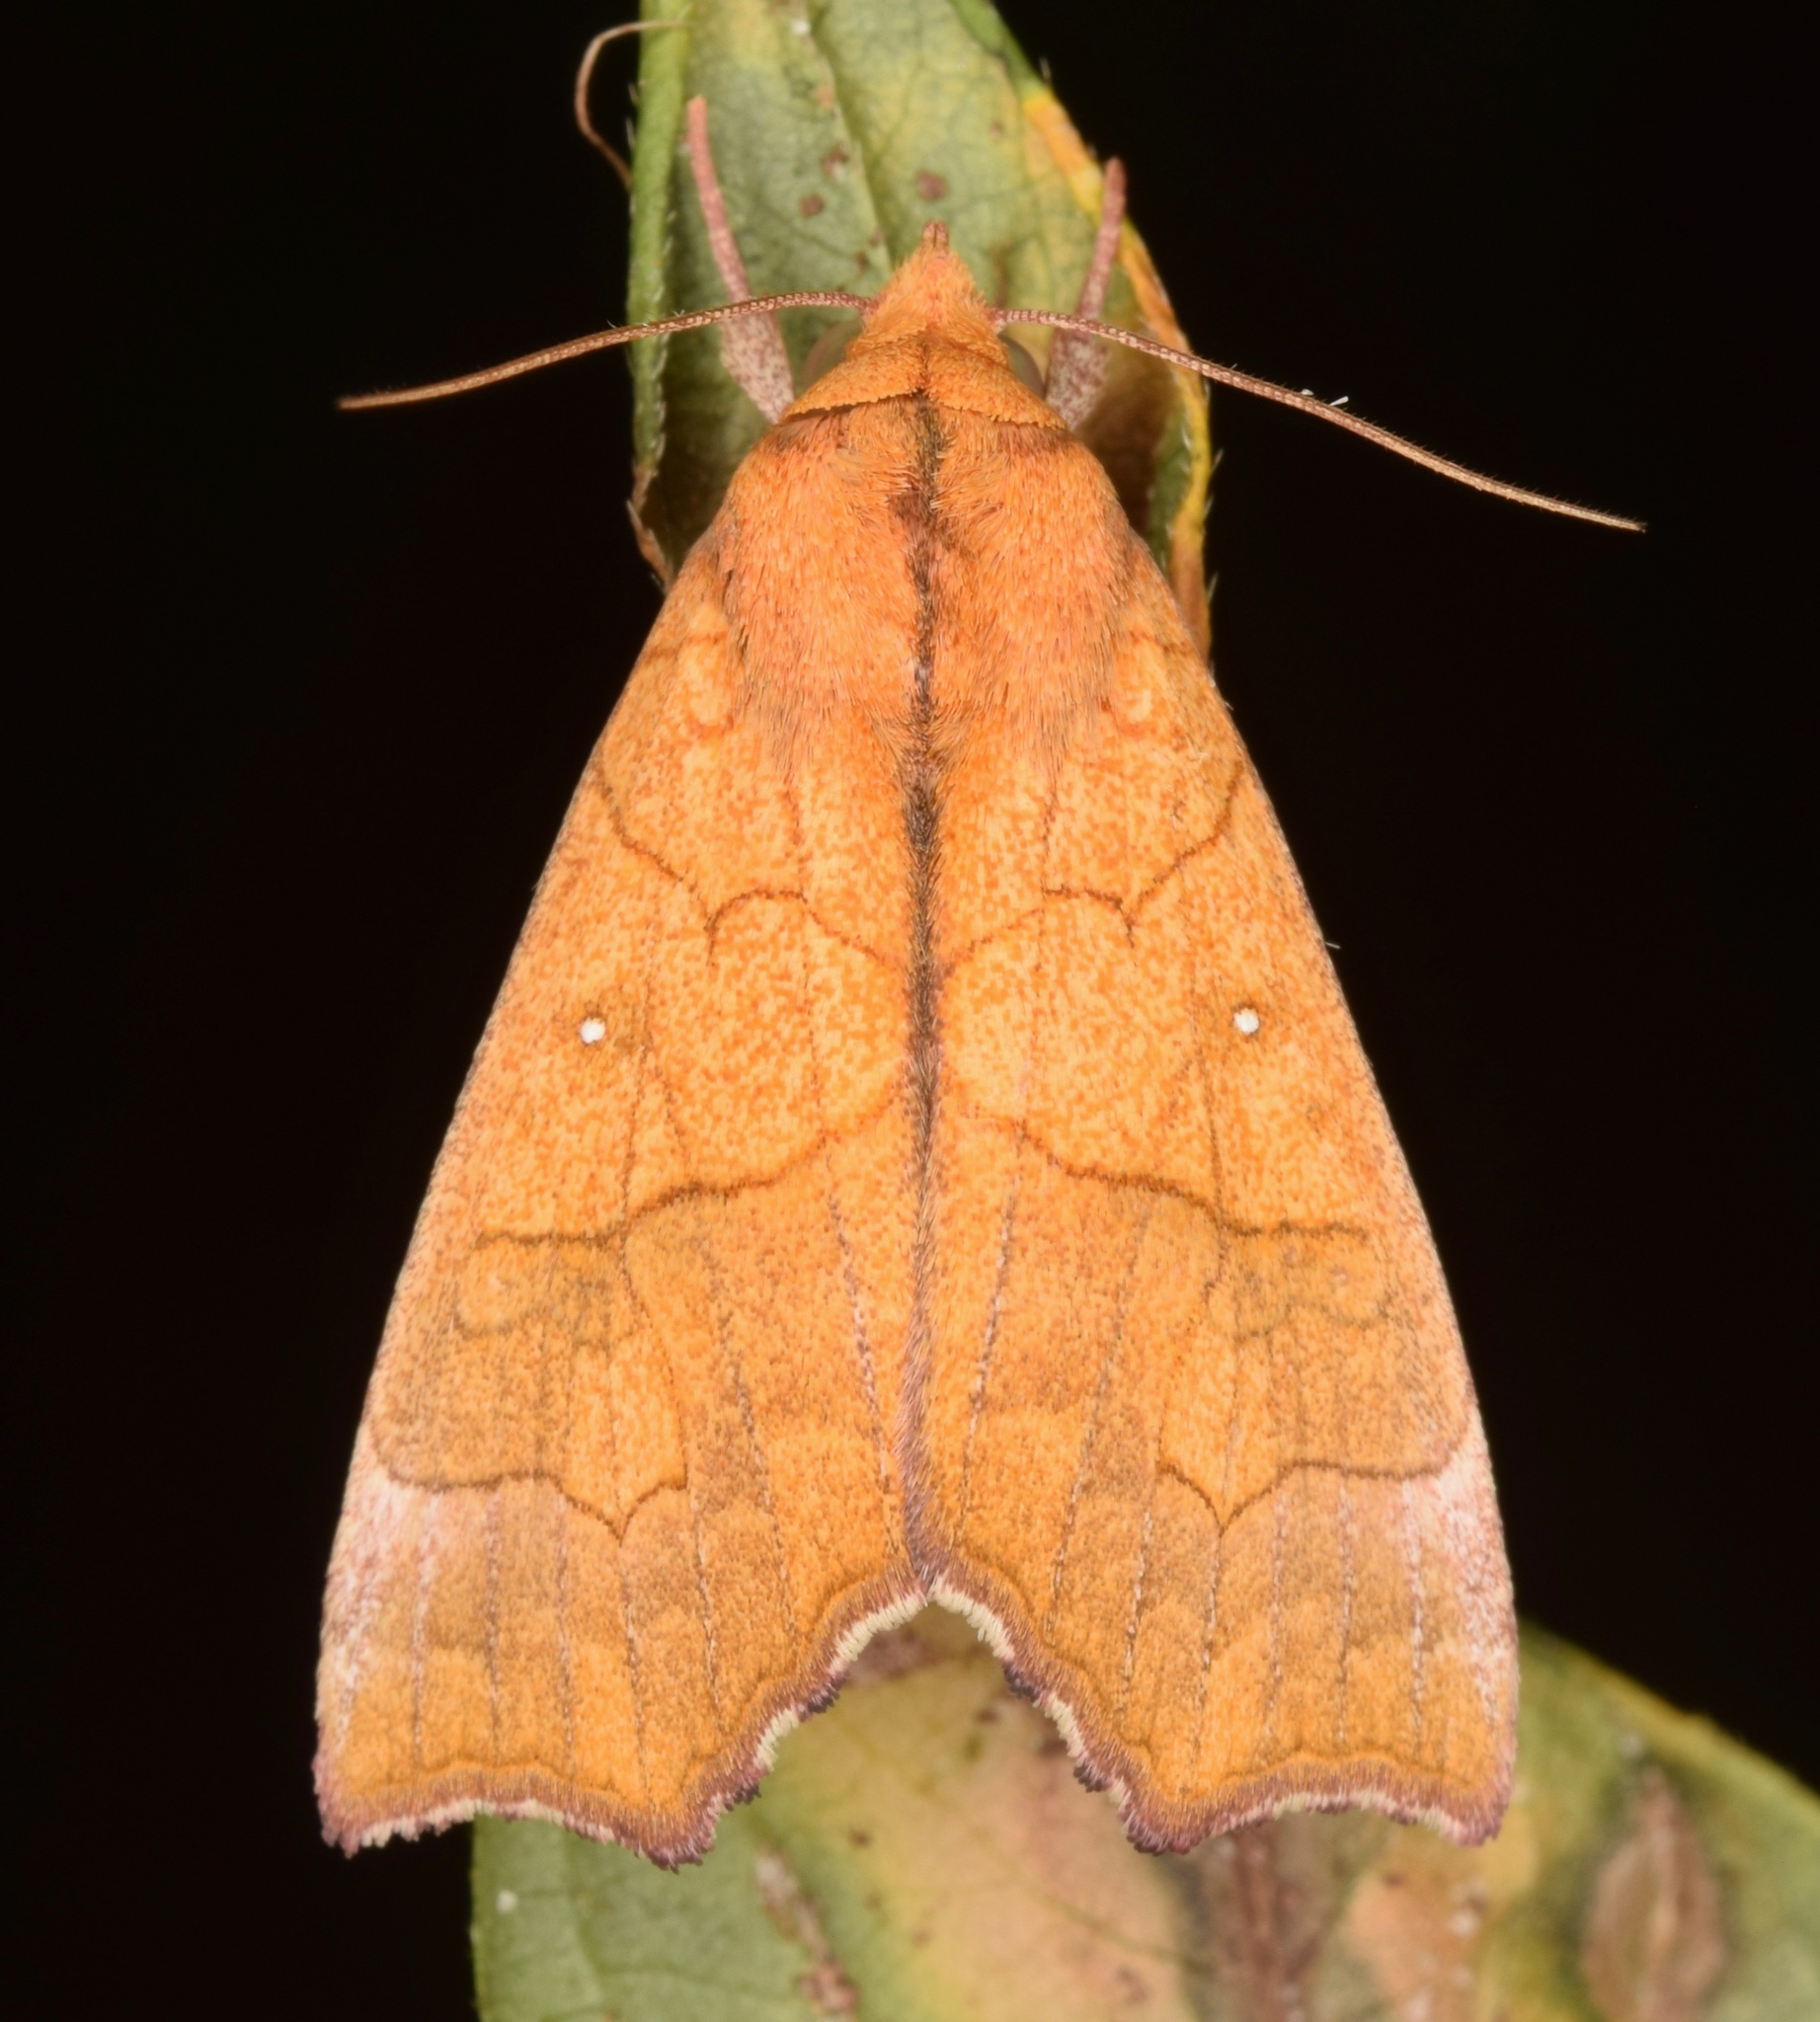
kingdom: Animalia
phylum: Arthropoda
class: Insecta
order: Lepidoptera
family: Erebidae
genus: Anomis
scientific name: Anomis erosa
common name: Yellow scallop moth
